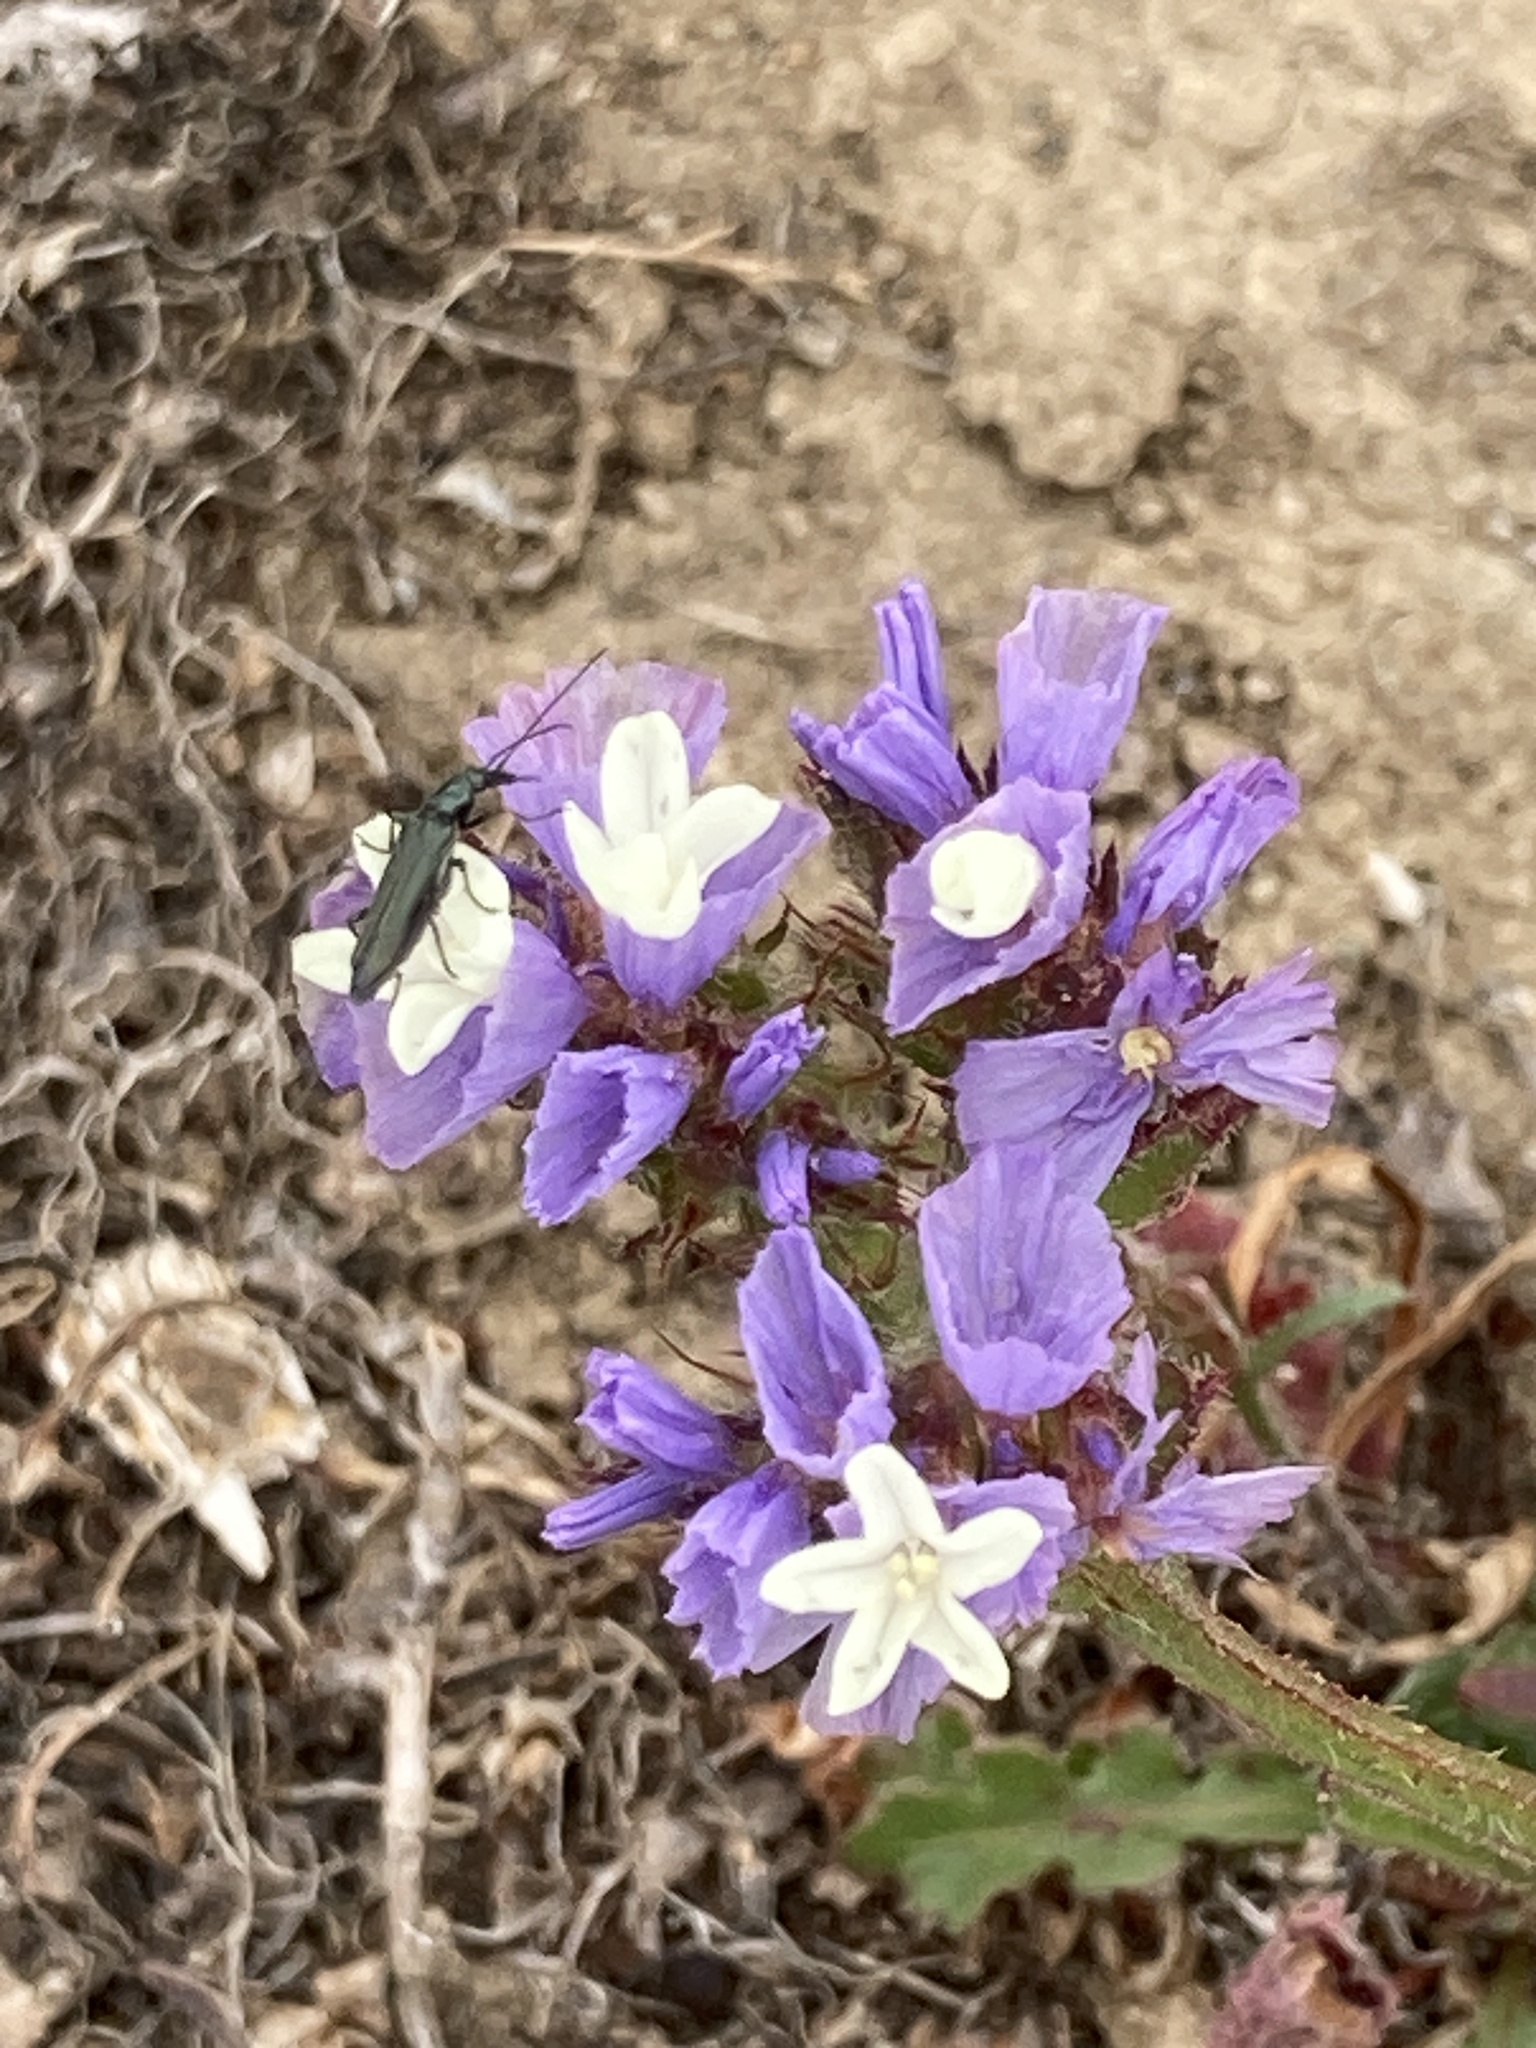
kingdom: Plantae
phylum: Tracheophyta
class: Magnoliopsida
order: Caryophyllales
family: Plumbaginaceae
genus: Limonium
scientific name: Limonium sinuatum
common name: Statice
